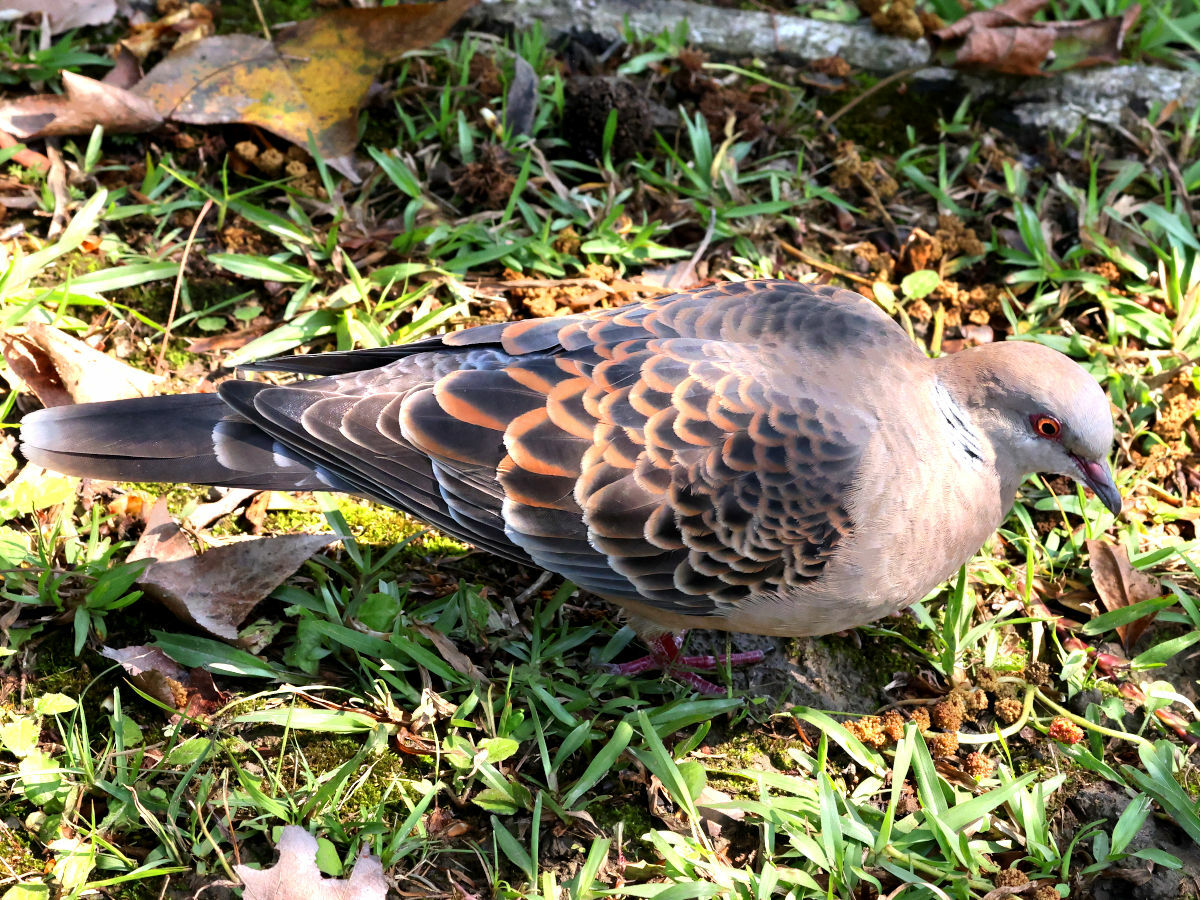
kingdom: Animalia
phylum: Chordata
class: Aves
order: Columbiformes
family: Columbidae
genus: Streptopelia
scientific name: Streptopelia orientalis
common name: Oriental turtle dove
